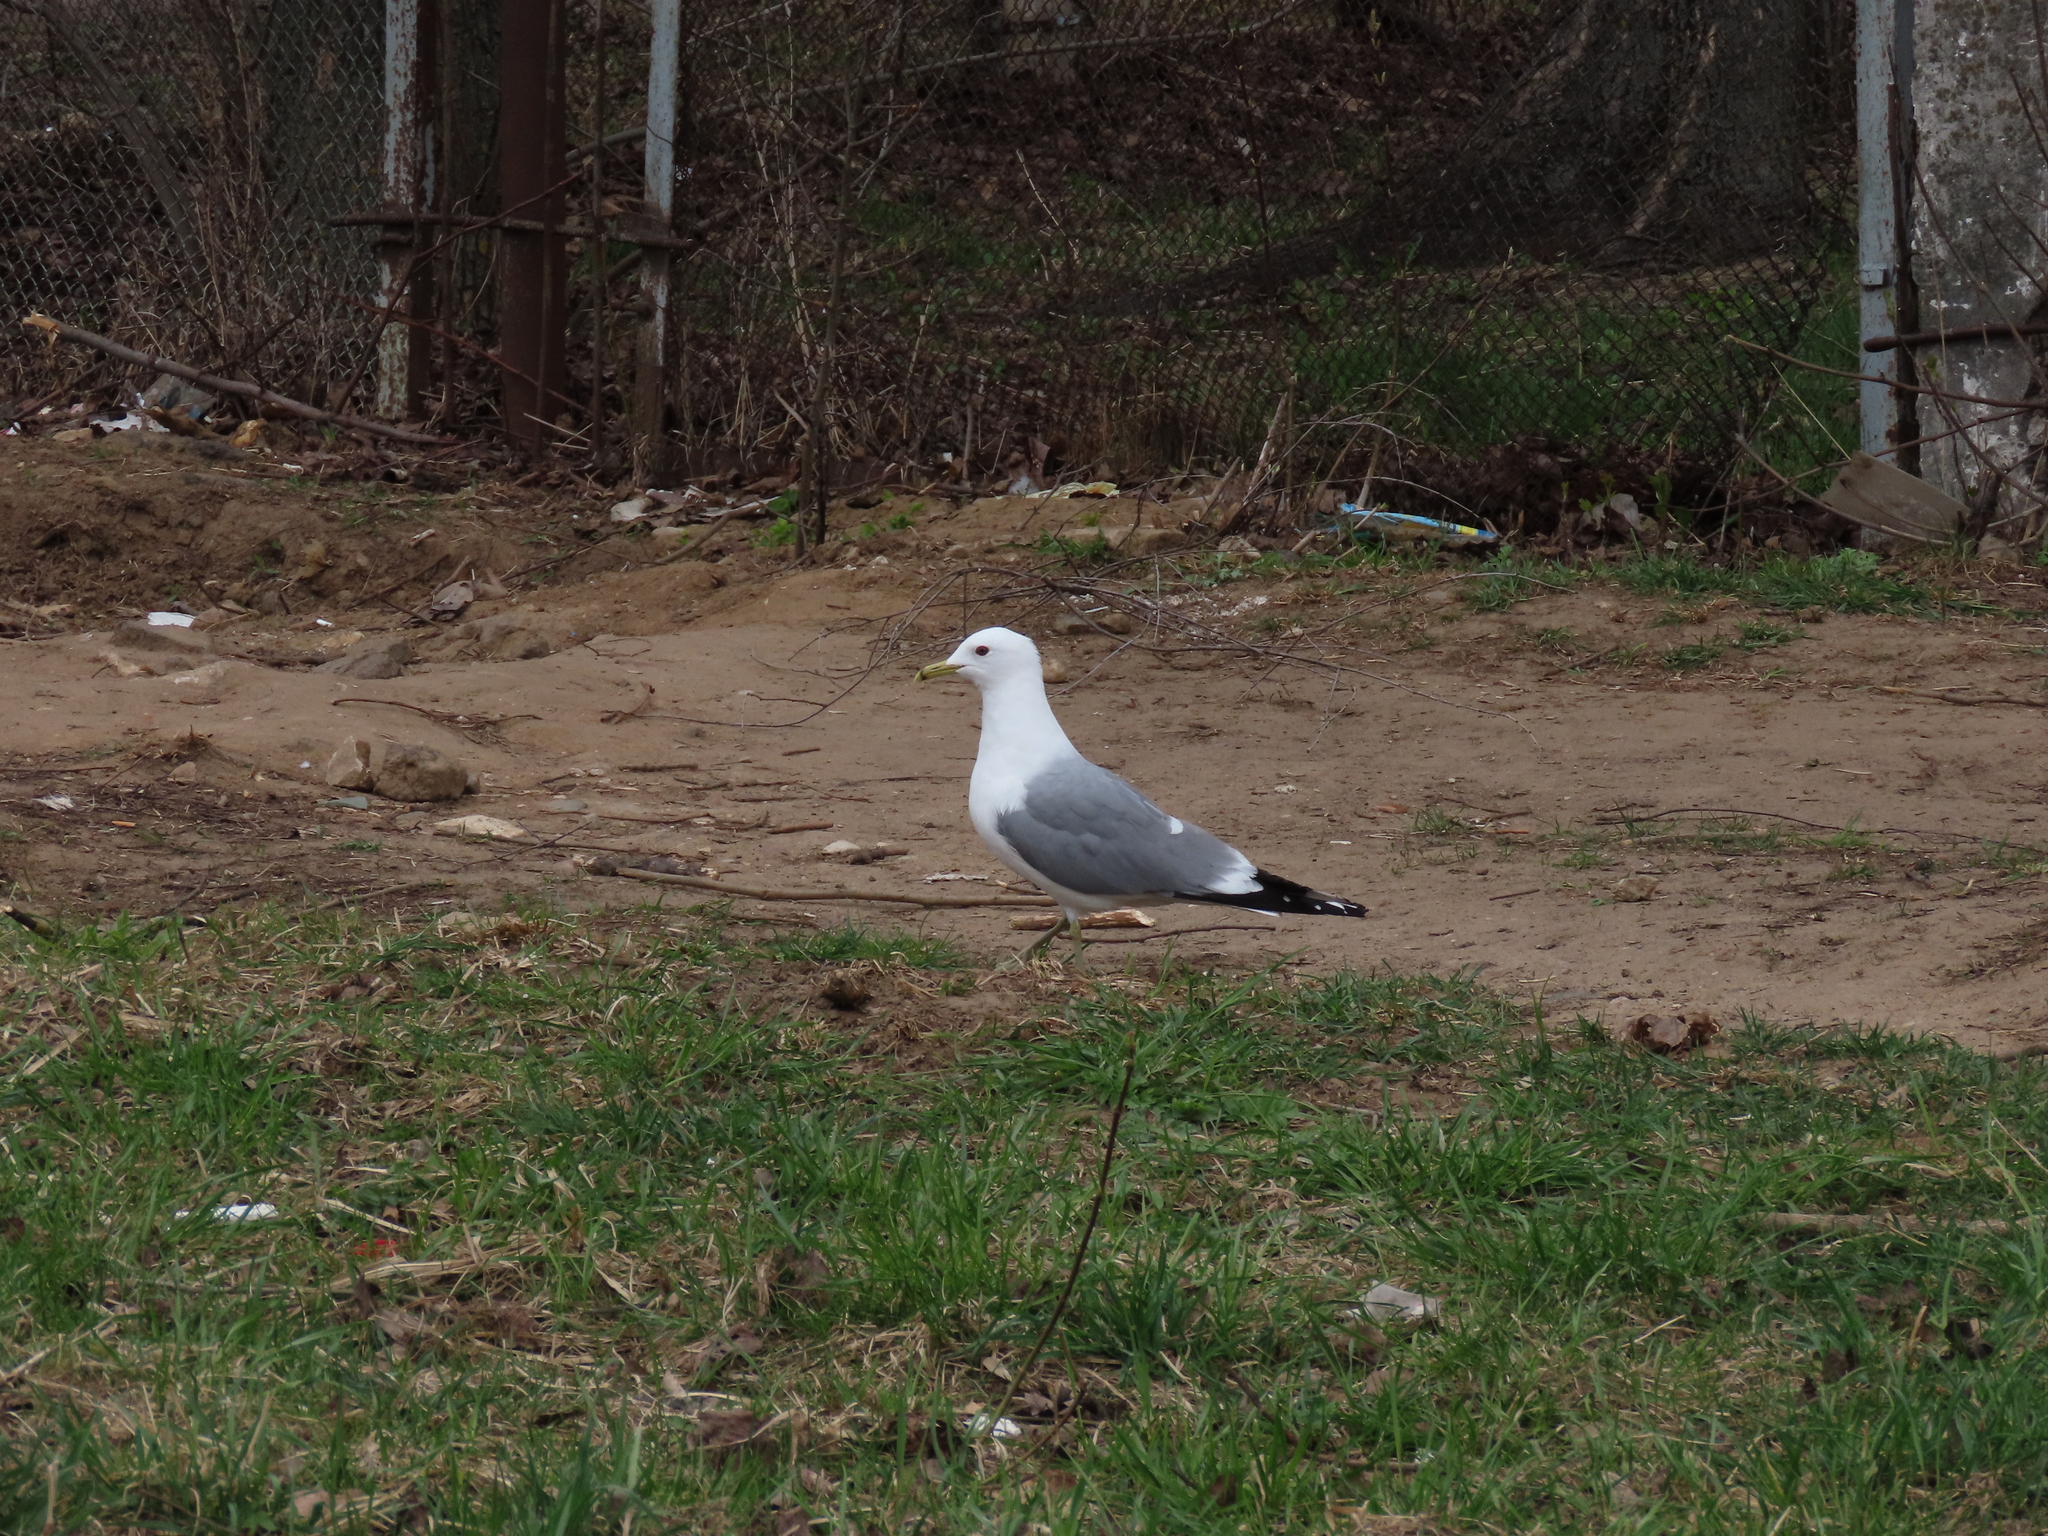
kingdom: Animalia
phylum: Chordata
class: Aves
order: Charadriiformes
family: Laridae
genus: Larus
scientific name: Larus canus
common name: Mew gull
